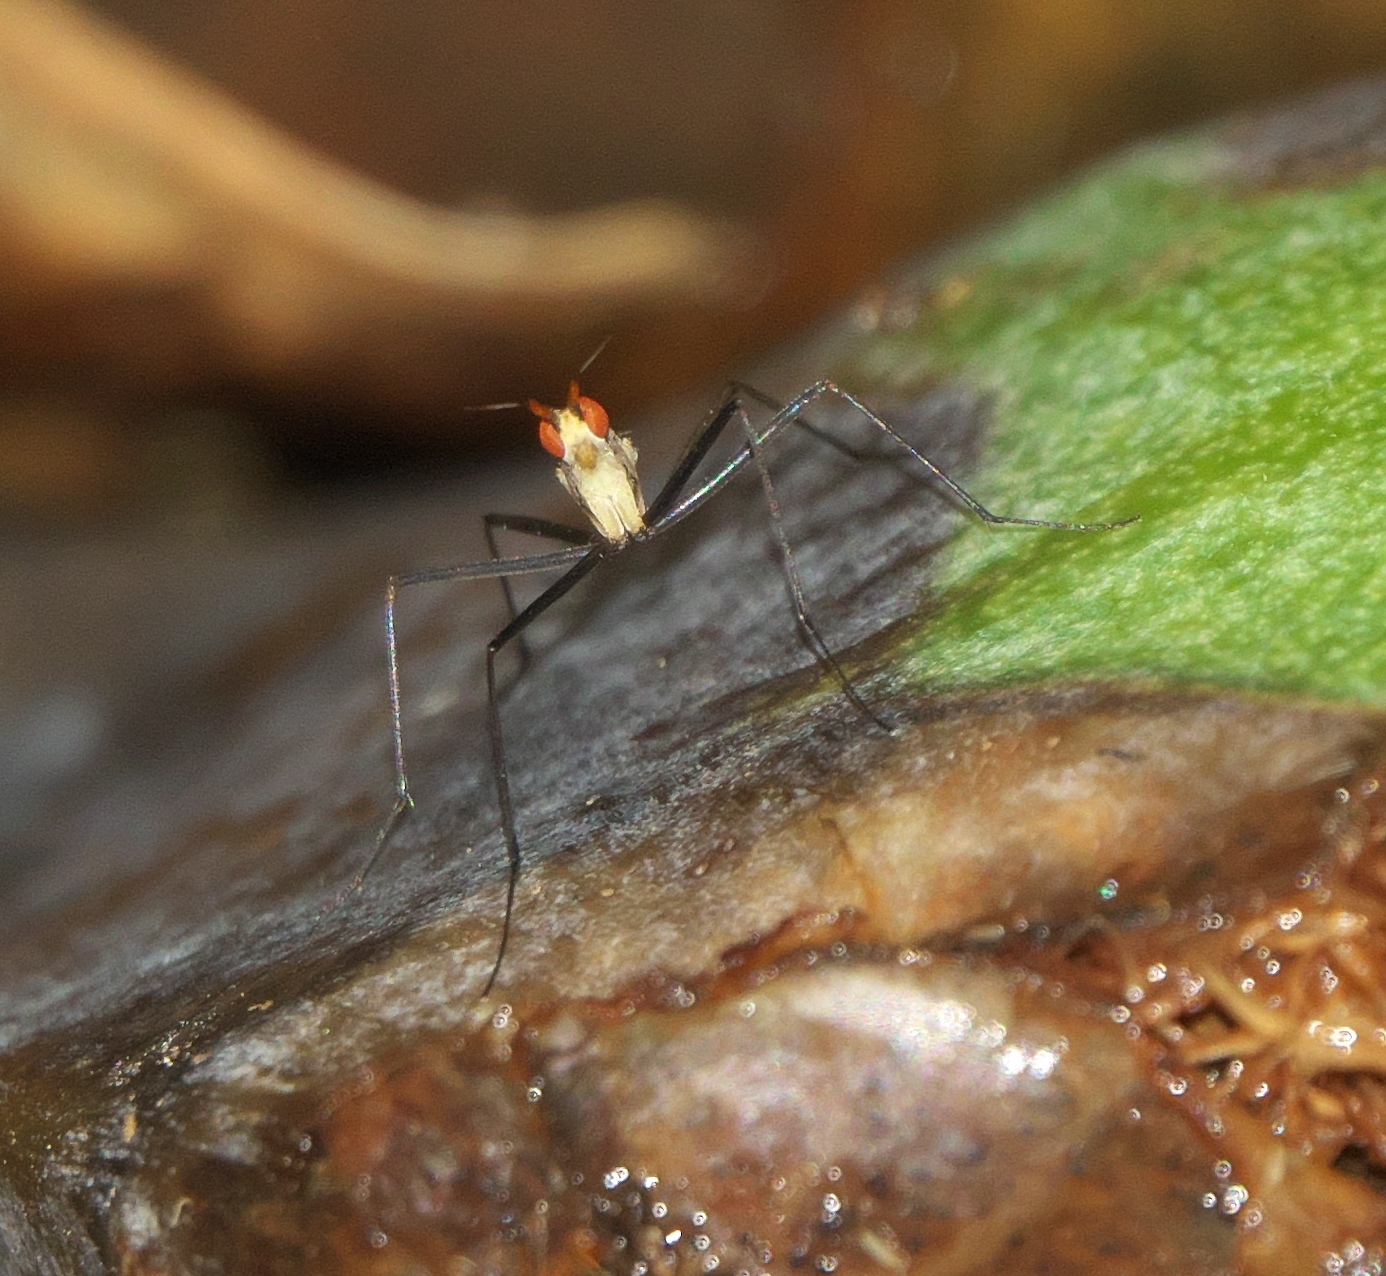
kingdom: Animalia
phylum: Arthropoda
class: Insecta
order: Diptera
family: Neriidae
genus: Telostylinus
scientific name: Telostylinus lineolatus
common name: Banana stalk fly
